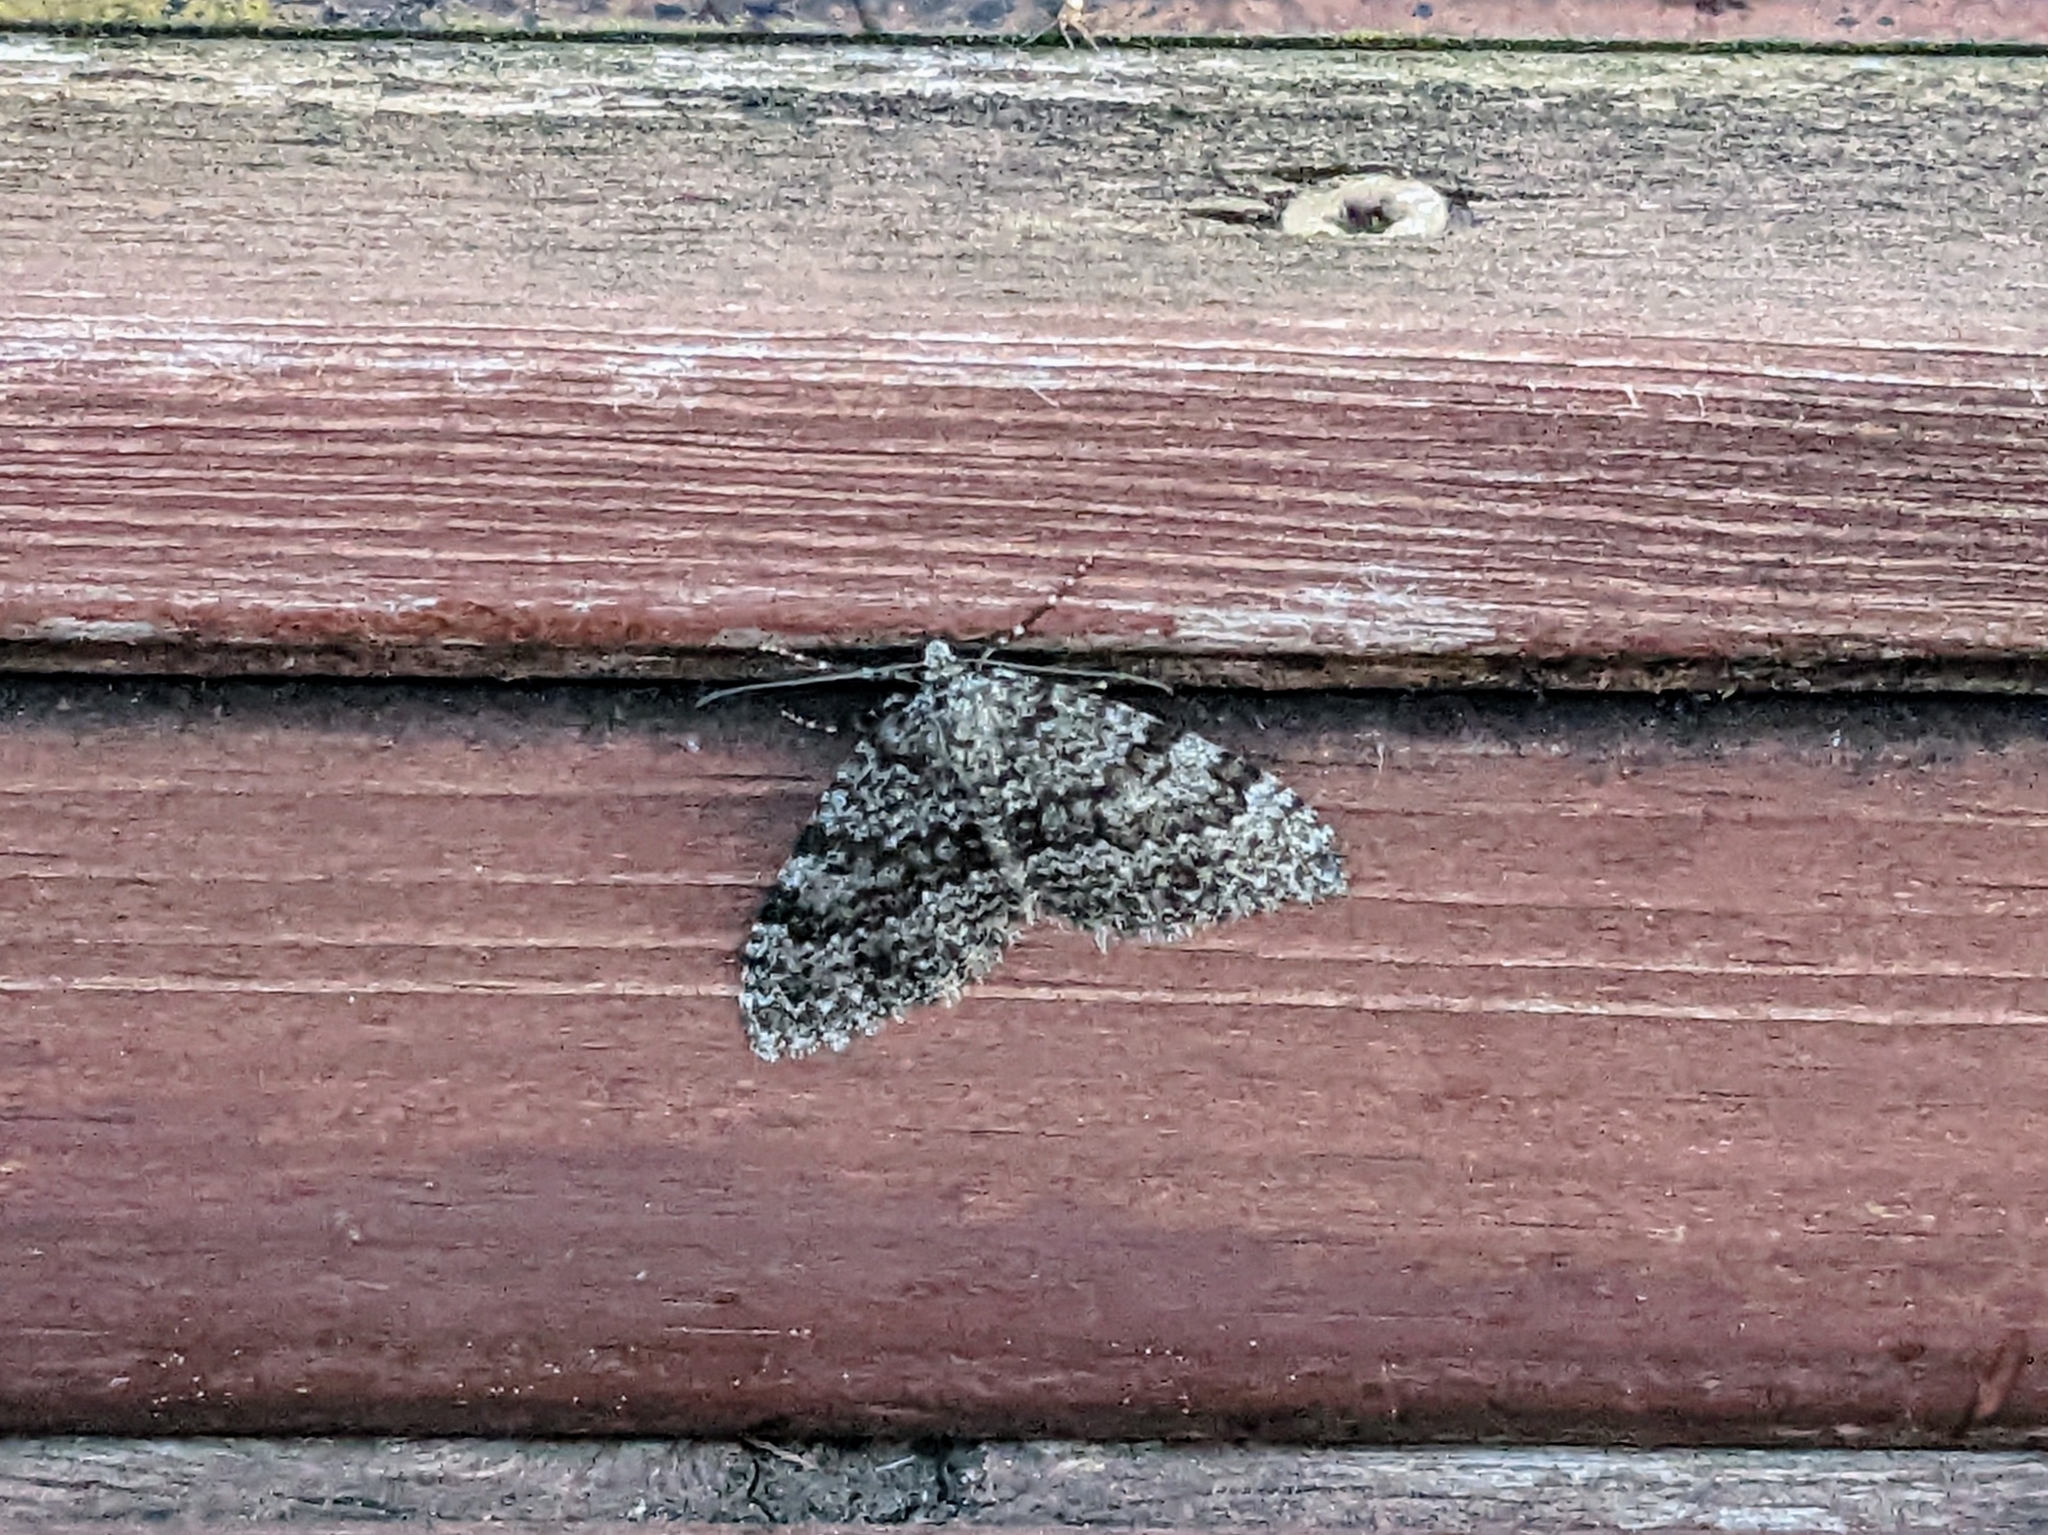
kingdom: Animalia
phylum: Arthropoda
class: Insecta
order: Lepidoptera
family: Geometridae
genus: Entephria
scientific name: Entephria caesiata
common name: Grey mountain moth
